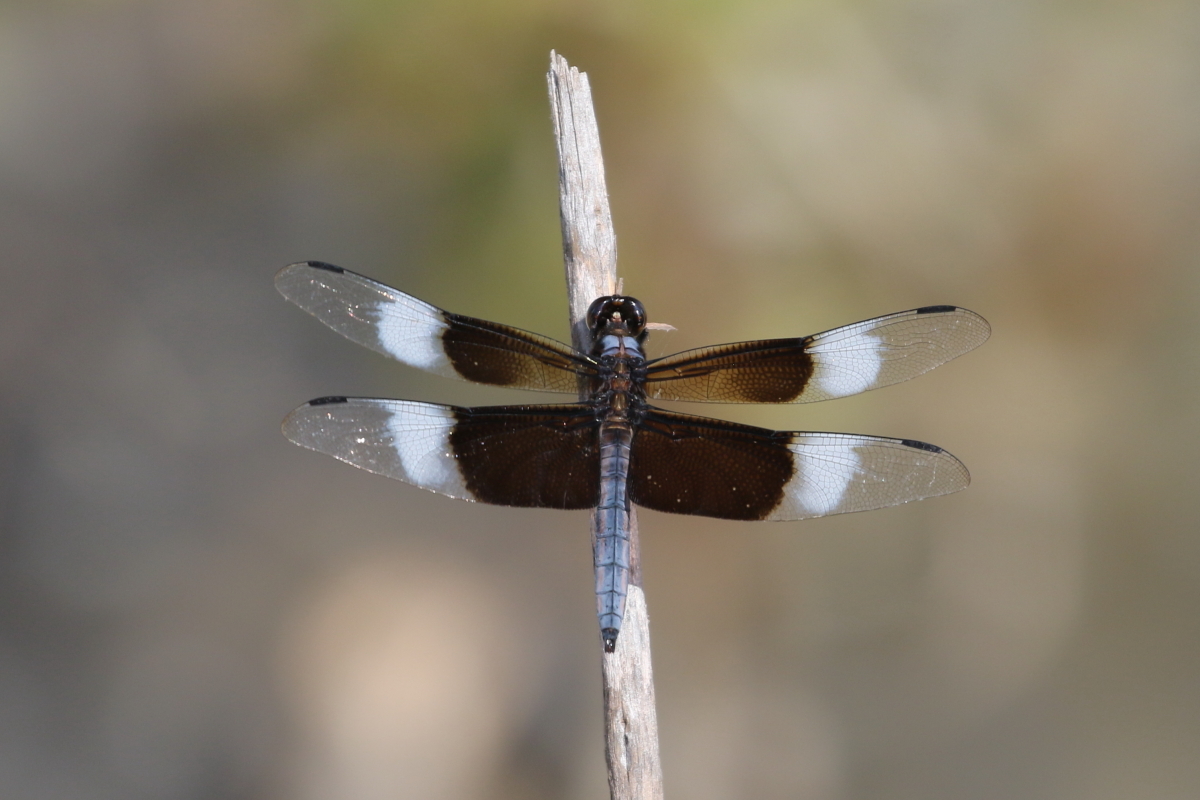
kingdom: Animalia
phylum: Arthropoda
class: Insecta
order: Odonata
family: Libellulidae
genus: Libellula
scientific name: Libellula luctuosa
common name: Widow skimmer
